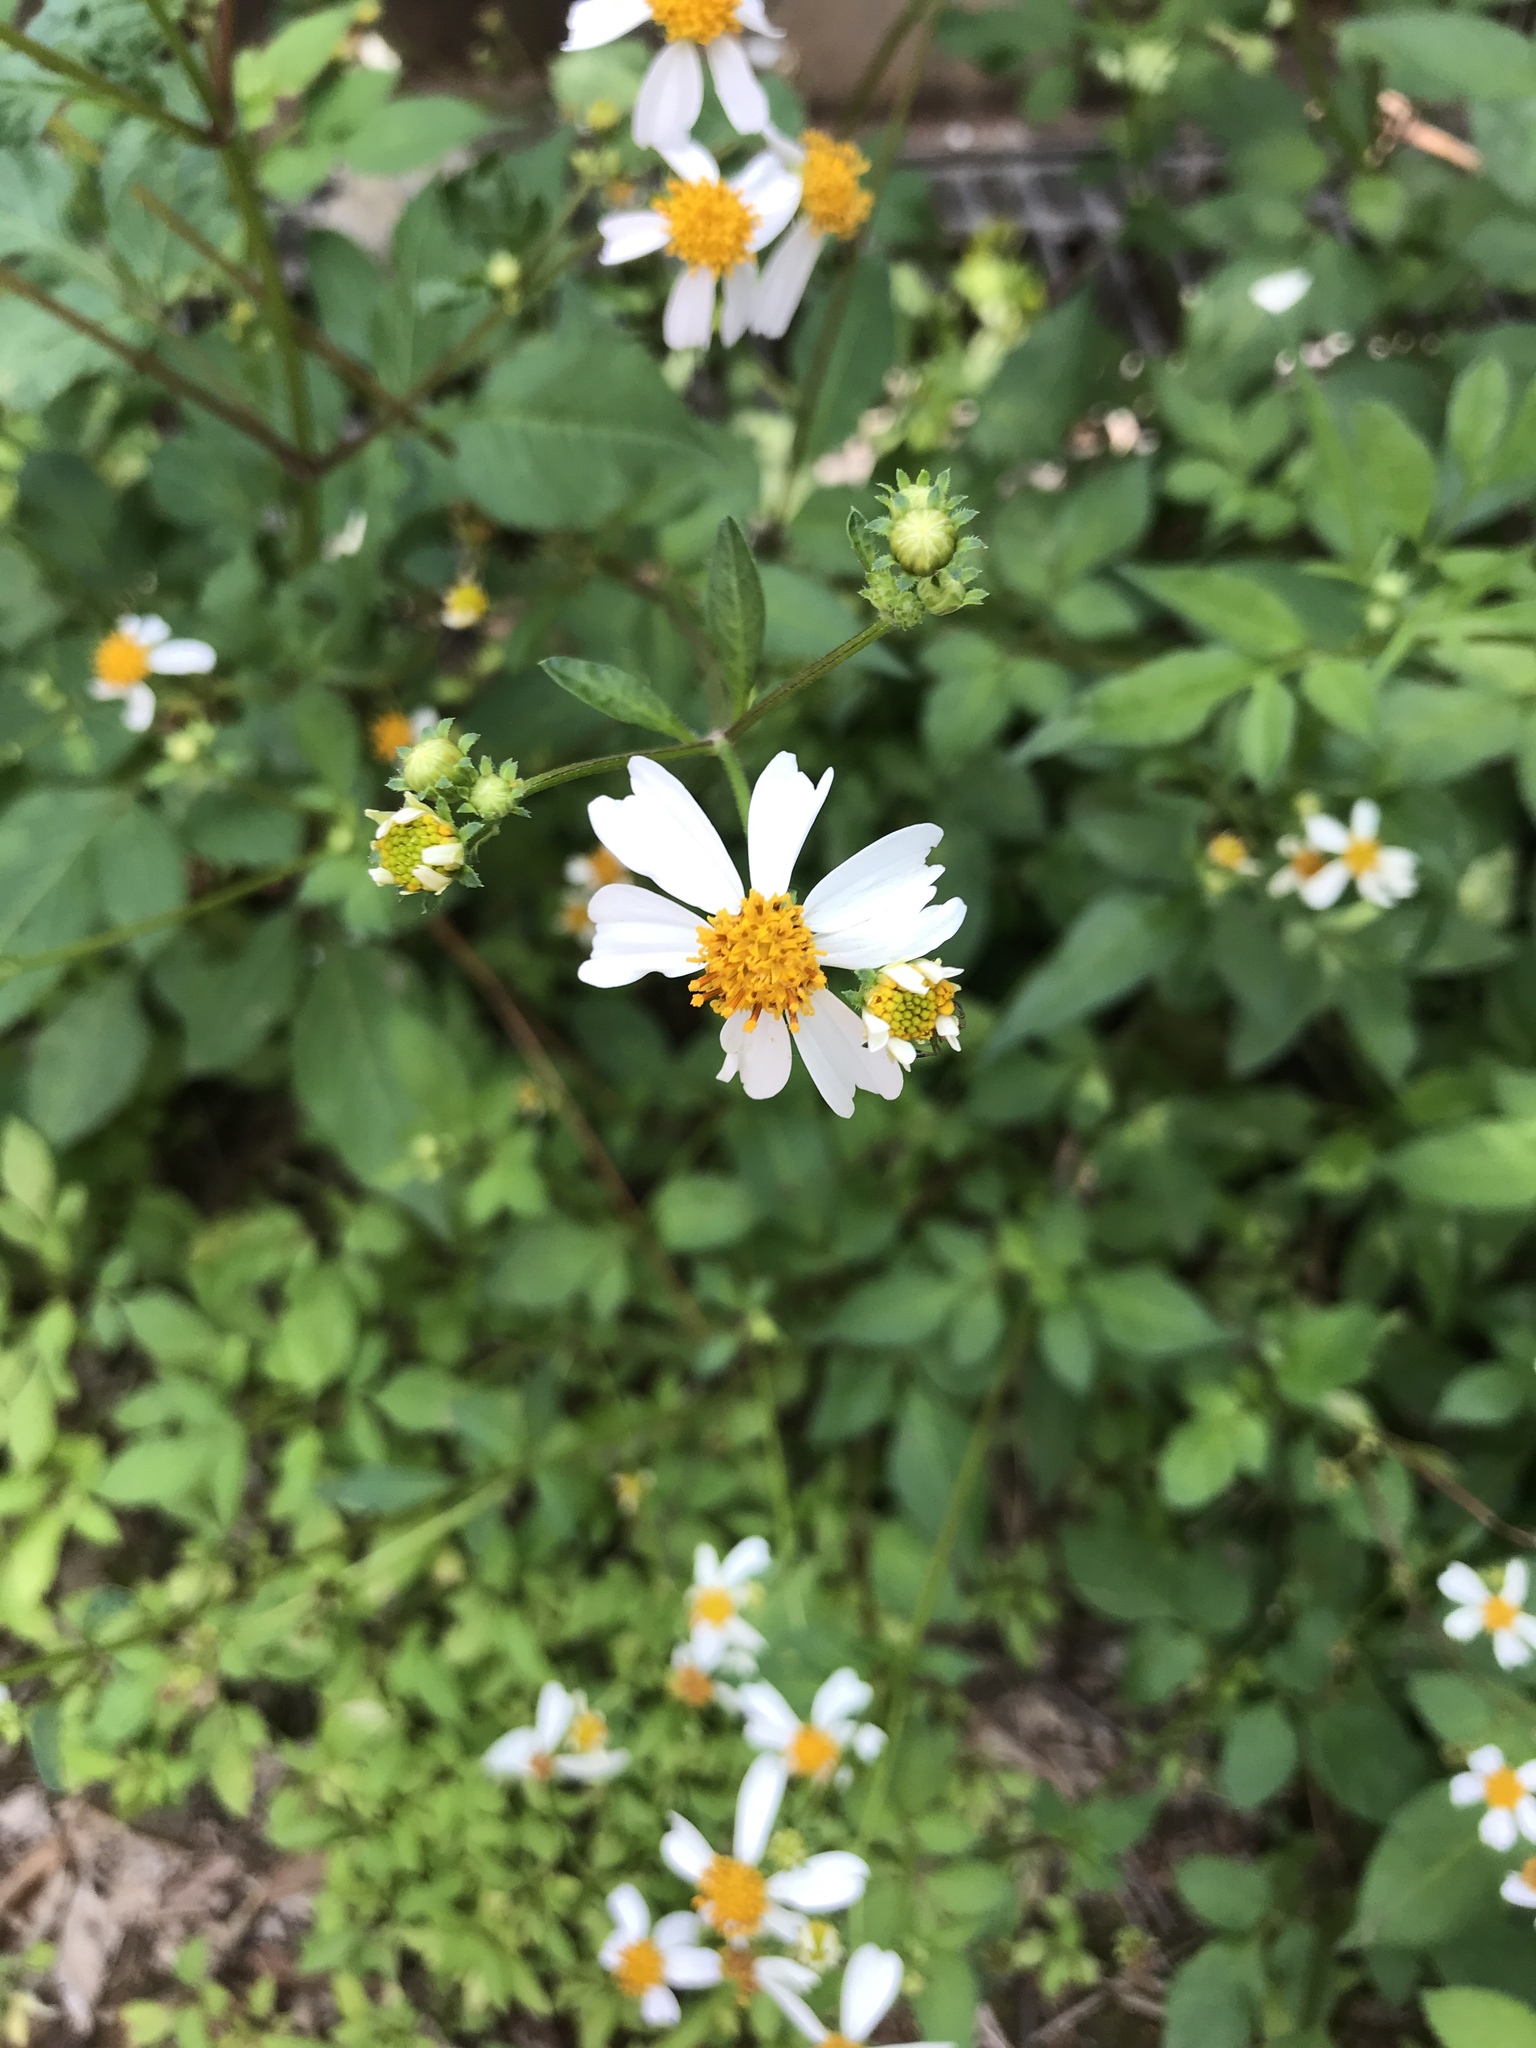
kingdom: Plantae
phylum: Tracheophyta
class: Magnoliopsida
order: Asterales
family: Asteraceae
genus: Bidens
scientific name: Bidens alba
